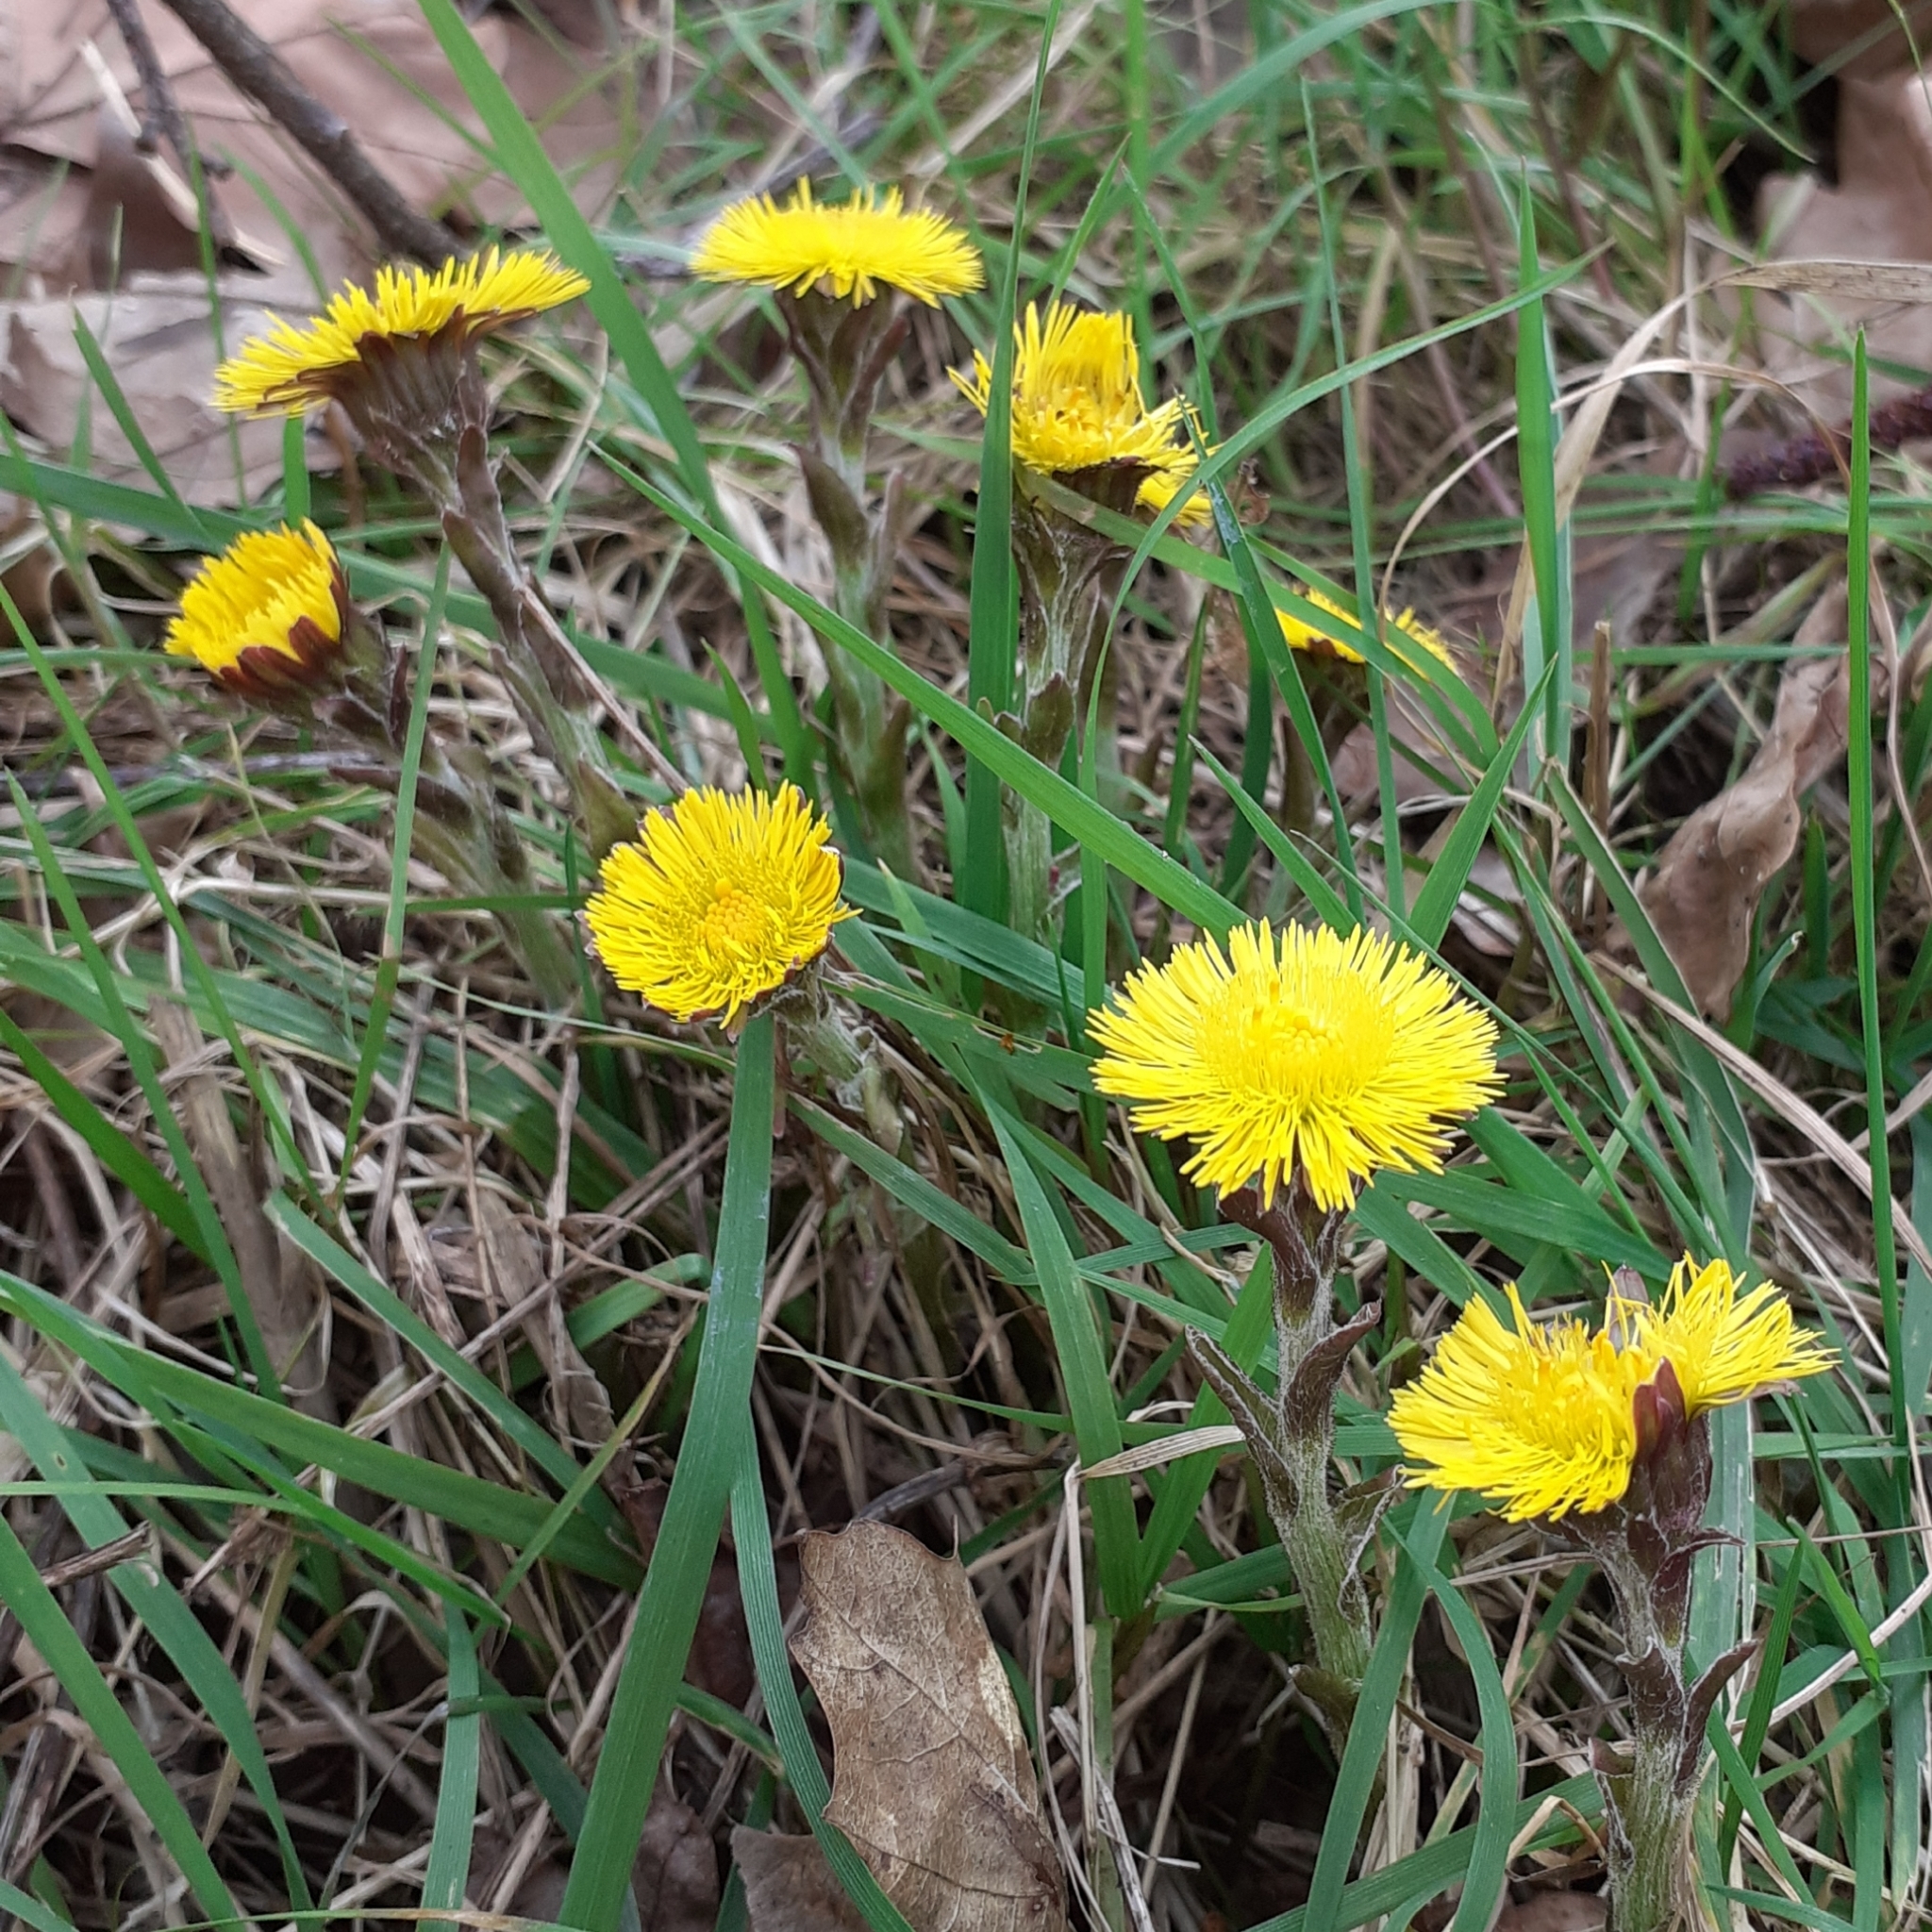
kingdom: Plantae
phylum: Tracheophyta
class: Magnoliopsida
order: Asterales
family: Asteraceae
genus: Tussilago
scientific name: Tussilago farfara
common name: Coltsfoot
